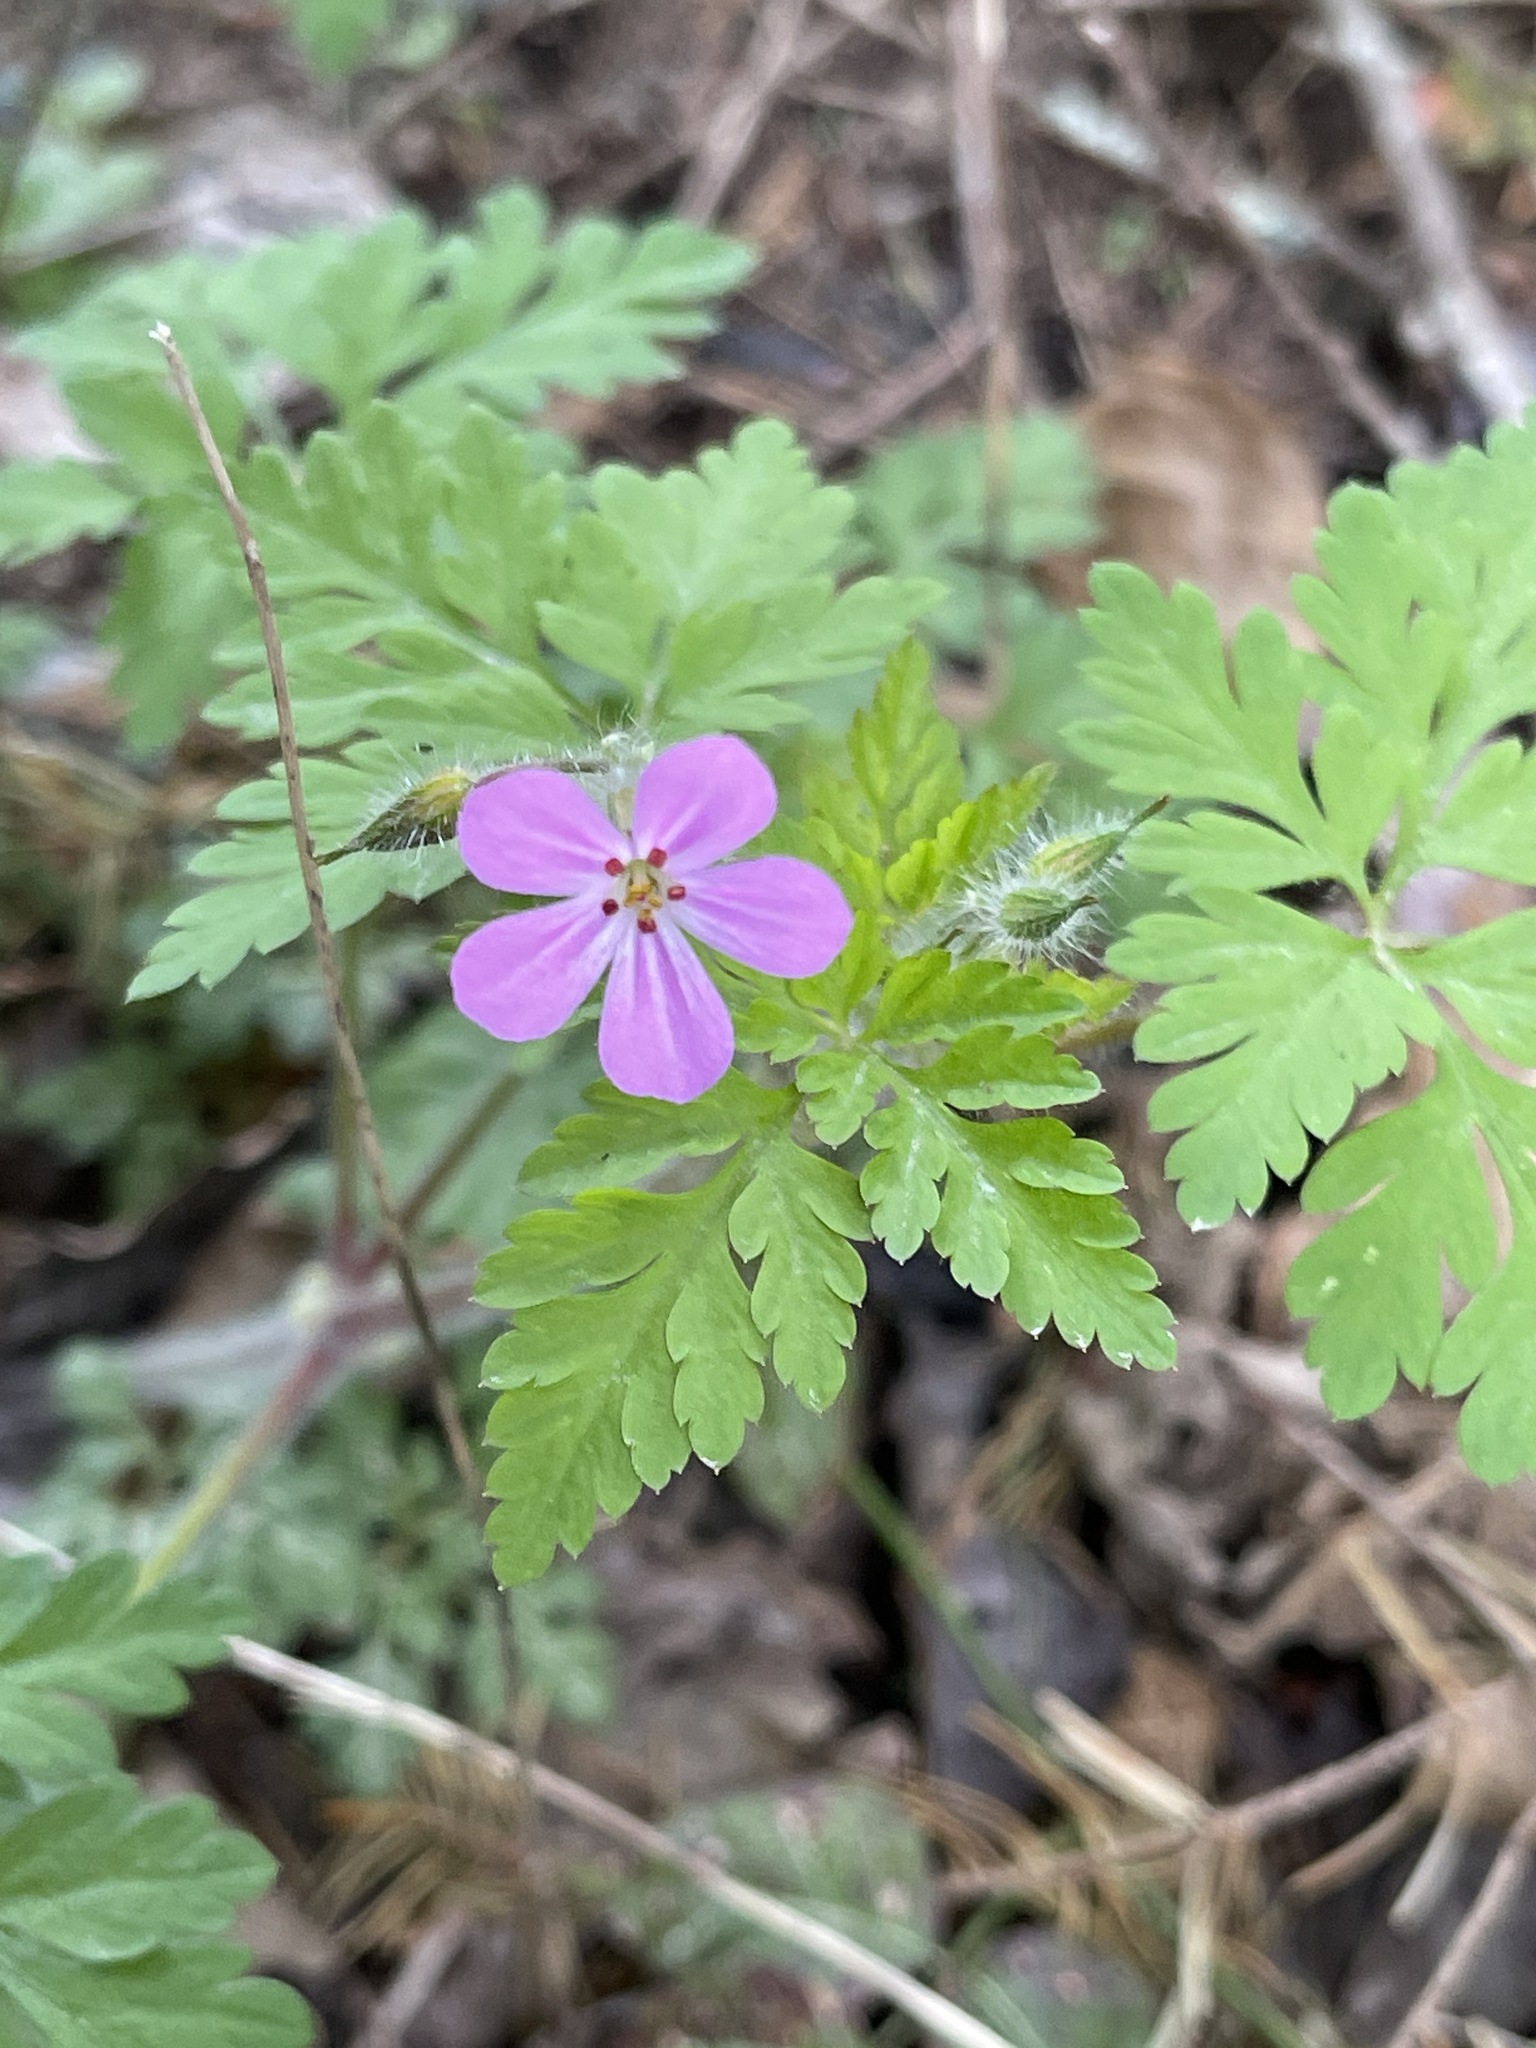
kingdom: Plantae
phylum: Tracheophyta
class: Magnoliopsida
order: Geraniales
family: Geraniaceae
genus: Geranium
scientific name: Geranium robertianum
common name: Herb-robert
